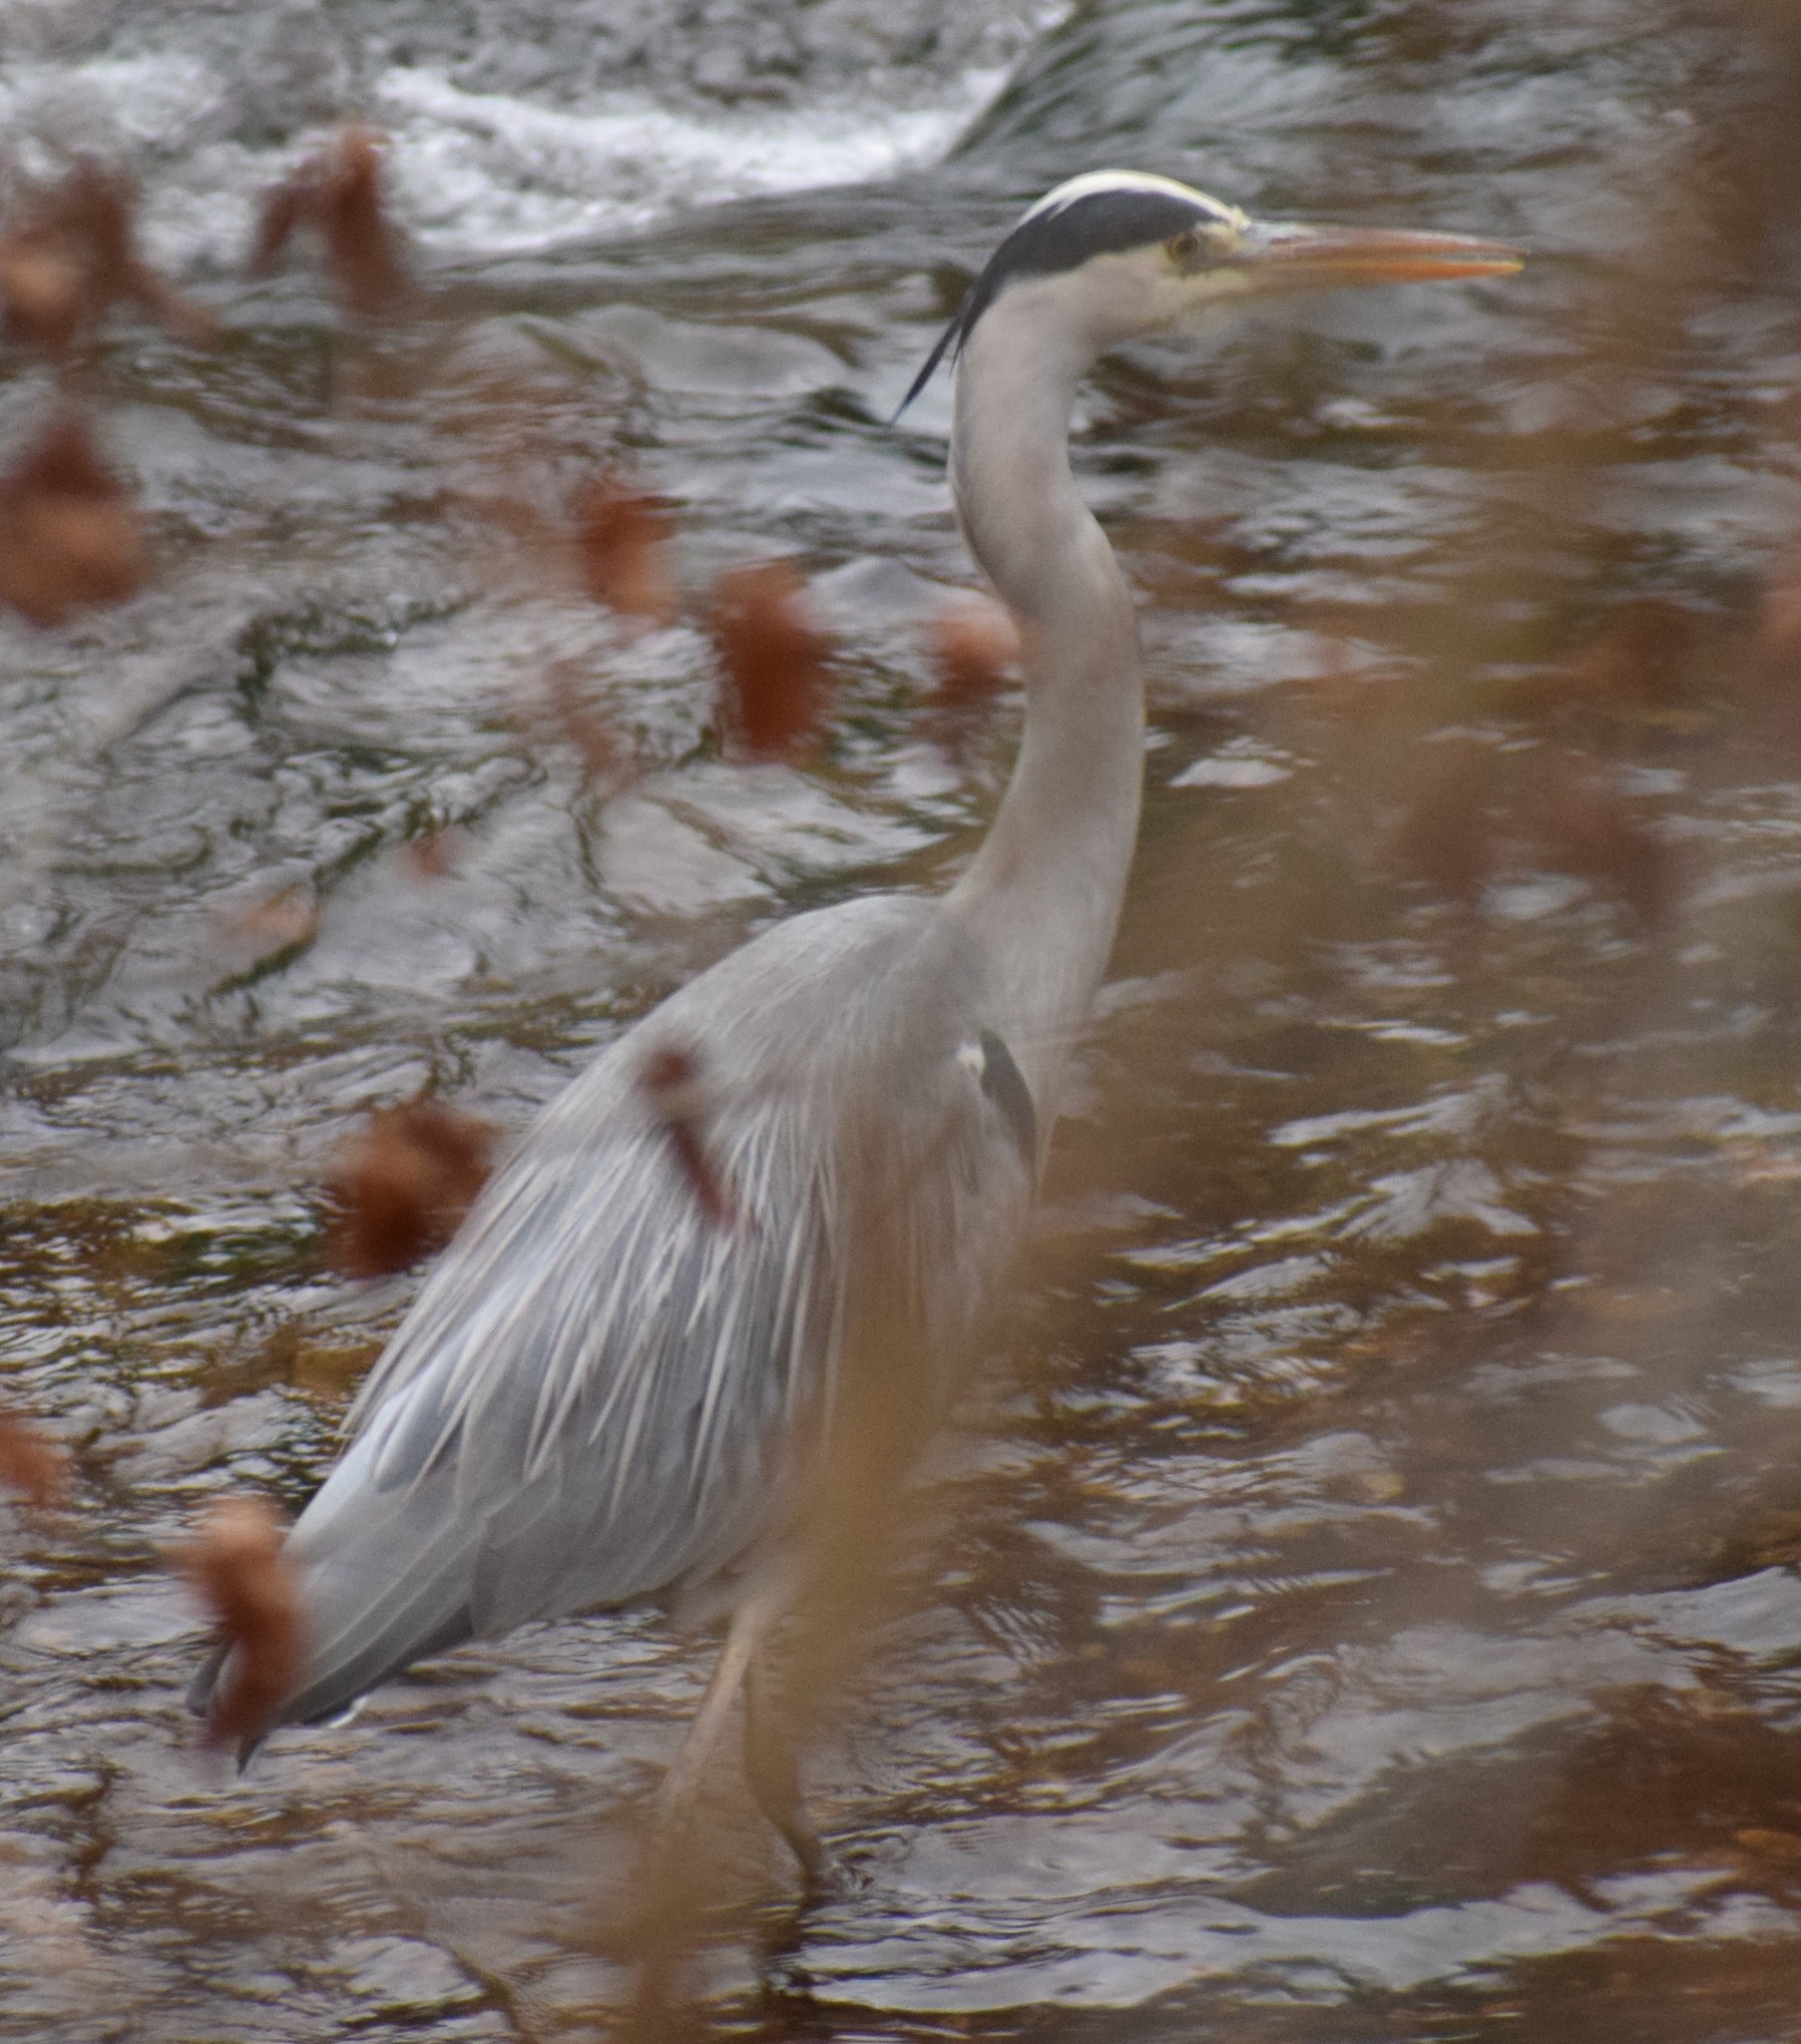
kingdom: Animalia
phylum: Chordata
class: Aves
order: Pelecaniformes
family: Ardeidae
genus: Ardea
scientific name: Ardea cinerea
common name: Grey heron
